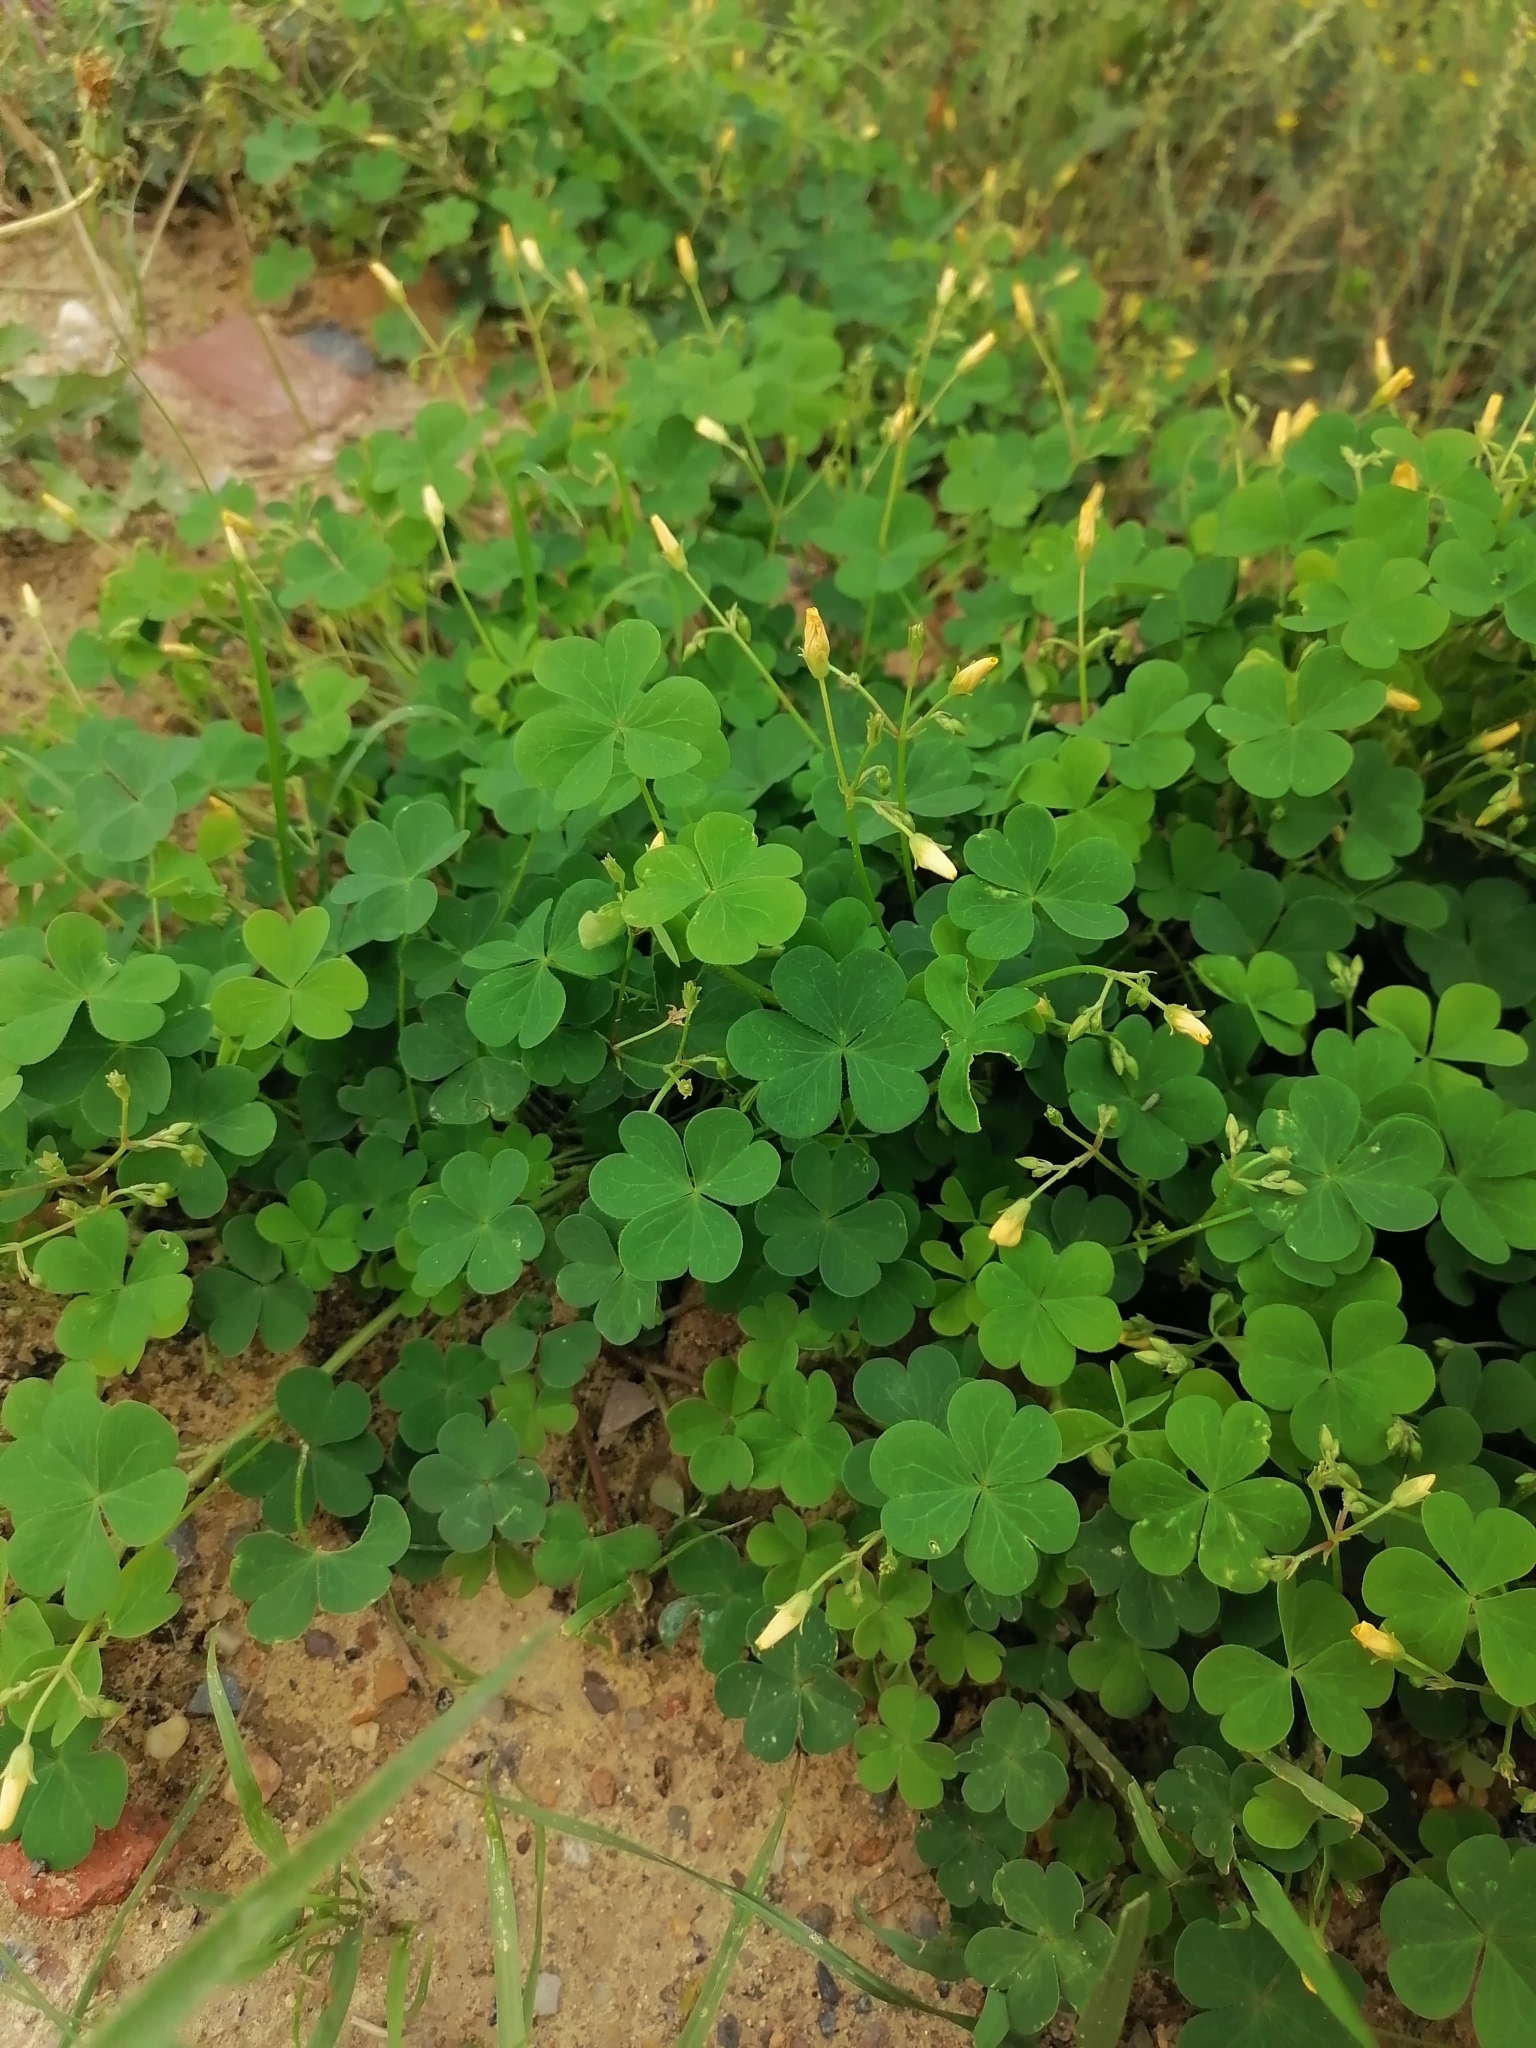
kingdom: Plantae
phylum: Tracheophyta
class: Magnoliopsida
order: Oxalidales
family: Oxalidaceae
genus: Oxalis
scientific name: Oxalis stricta
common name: Upright yellow-sorrel
